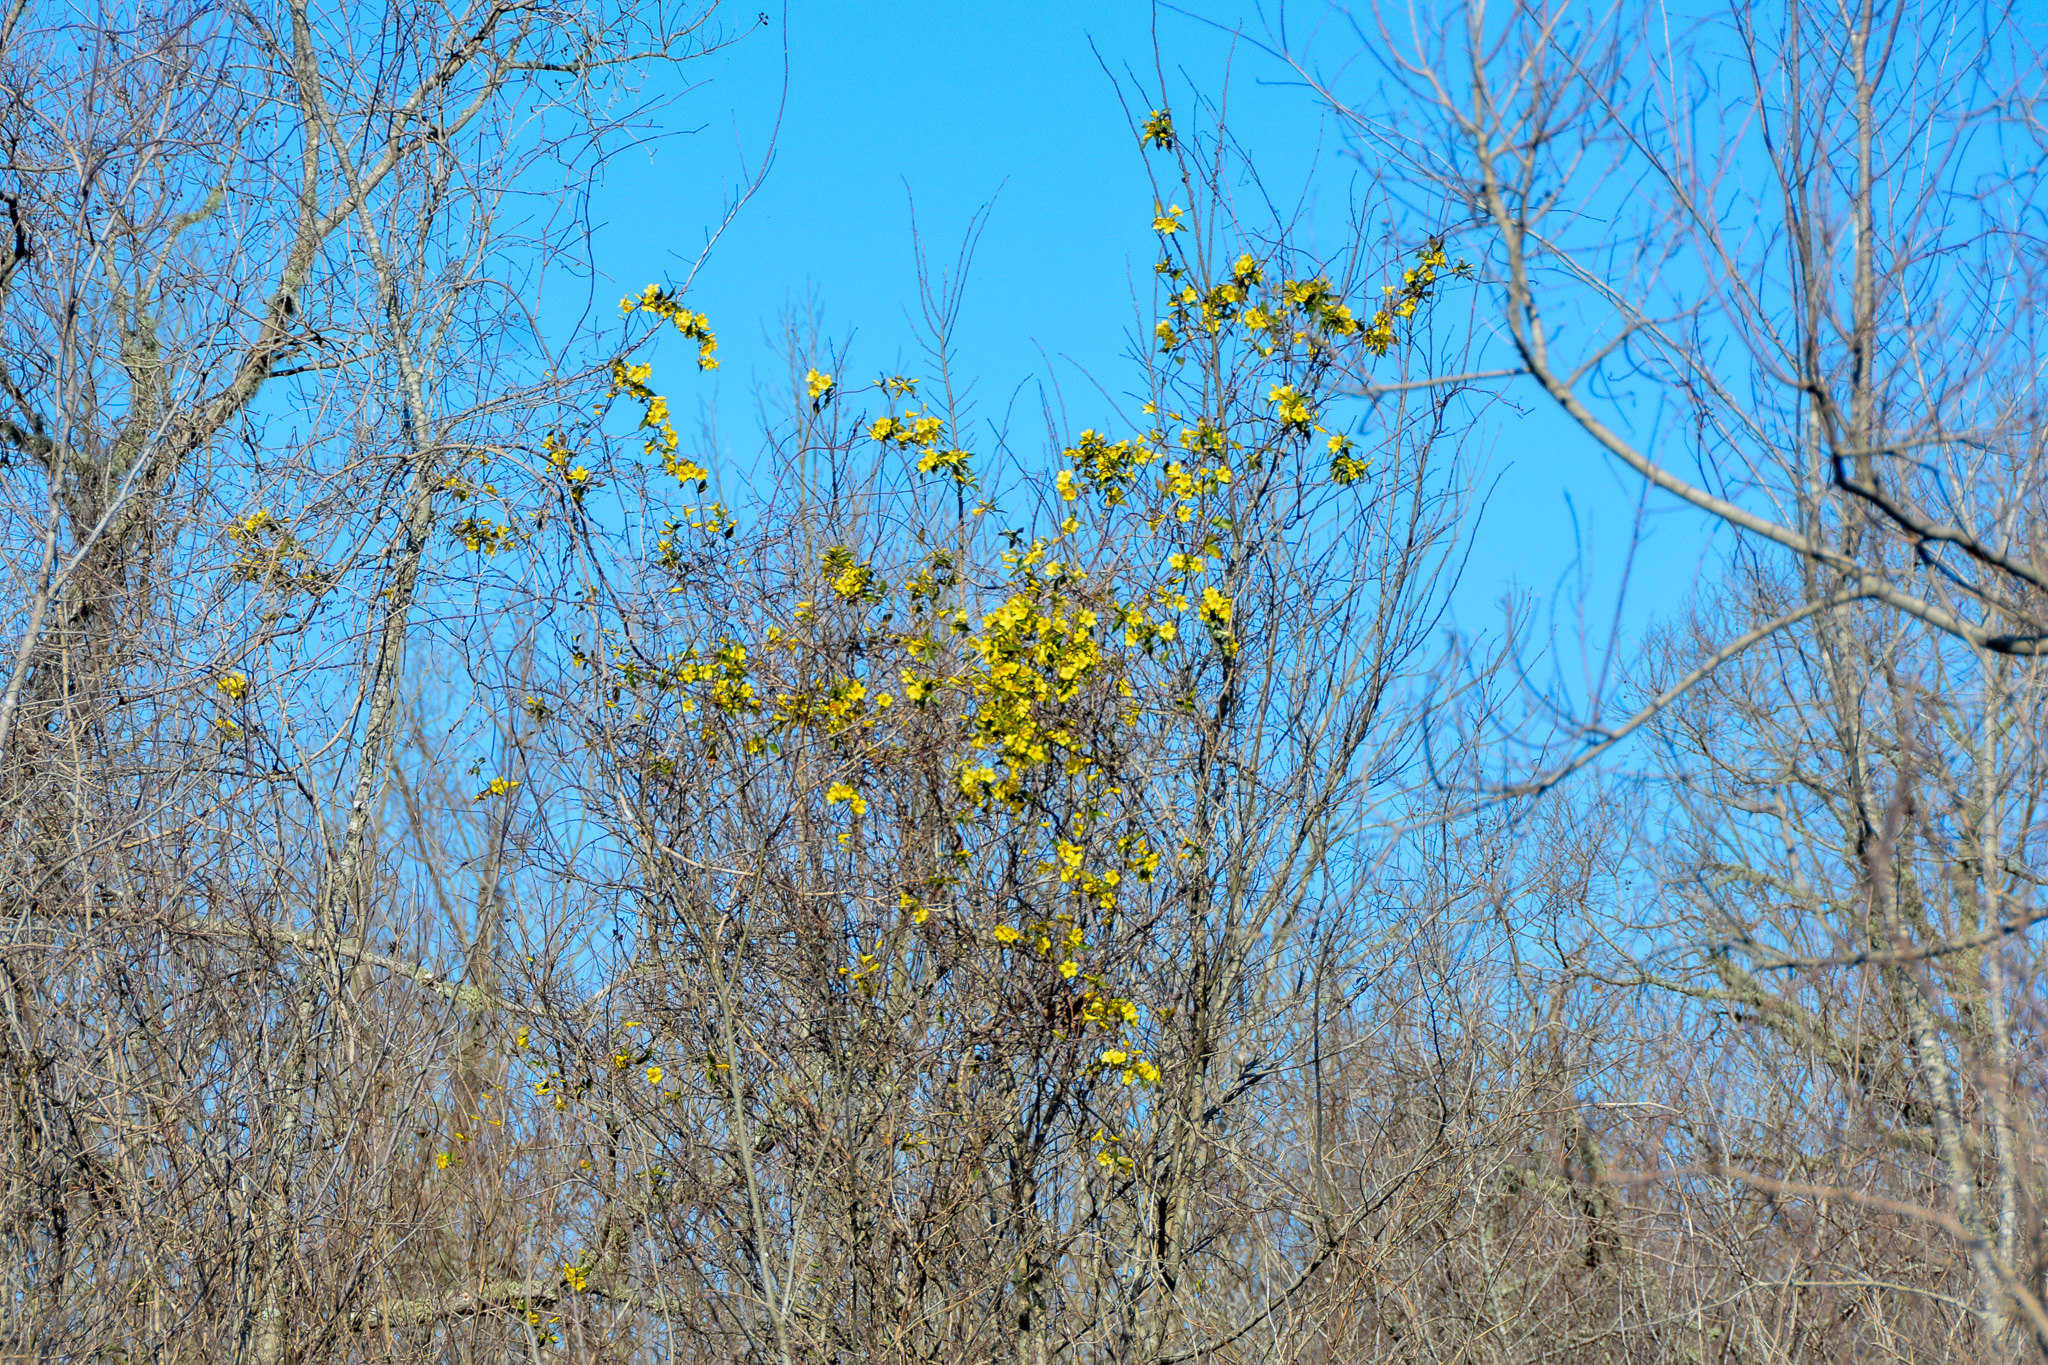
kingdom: Plantae
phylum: Tracheophyta
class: Magnoliopsida
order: Gentianales
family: Gelsemiaceae
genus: Gelsemium
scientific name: Gelsemium sempervirens
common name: Carolina-jasmine
